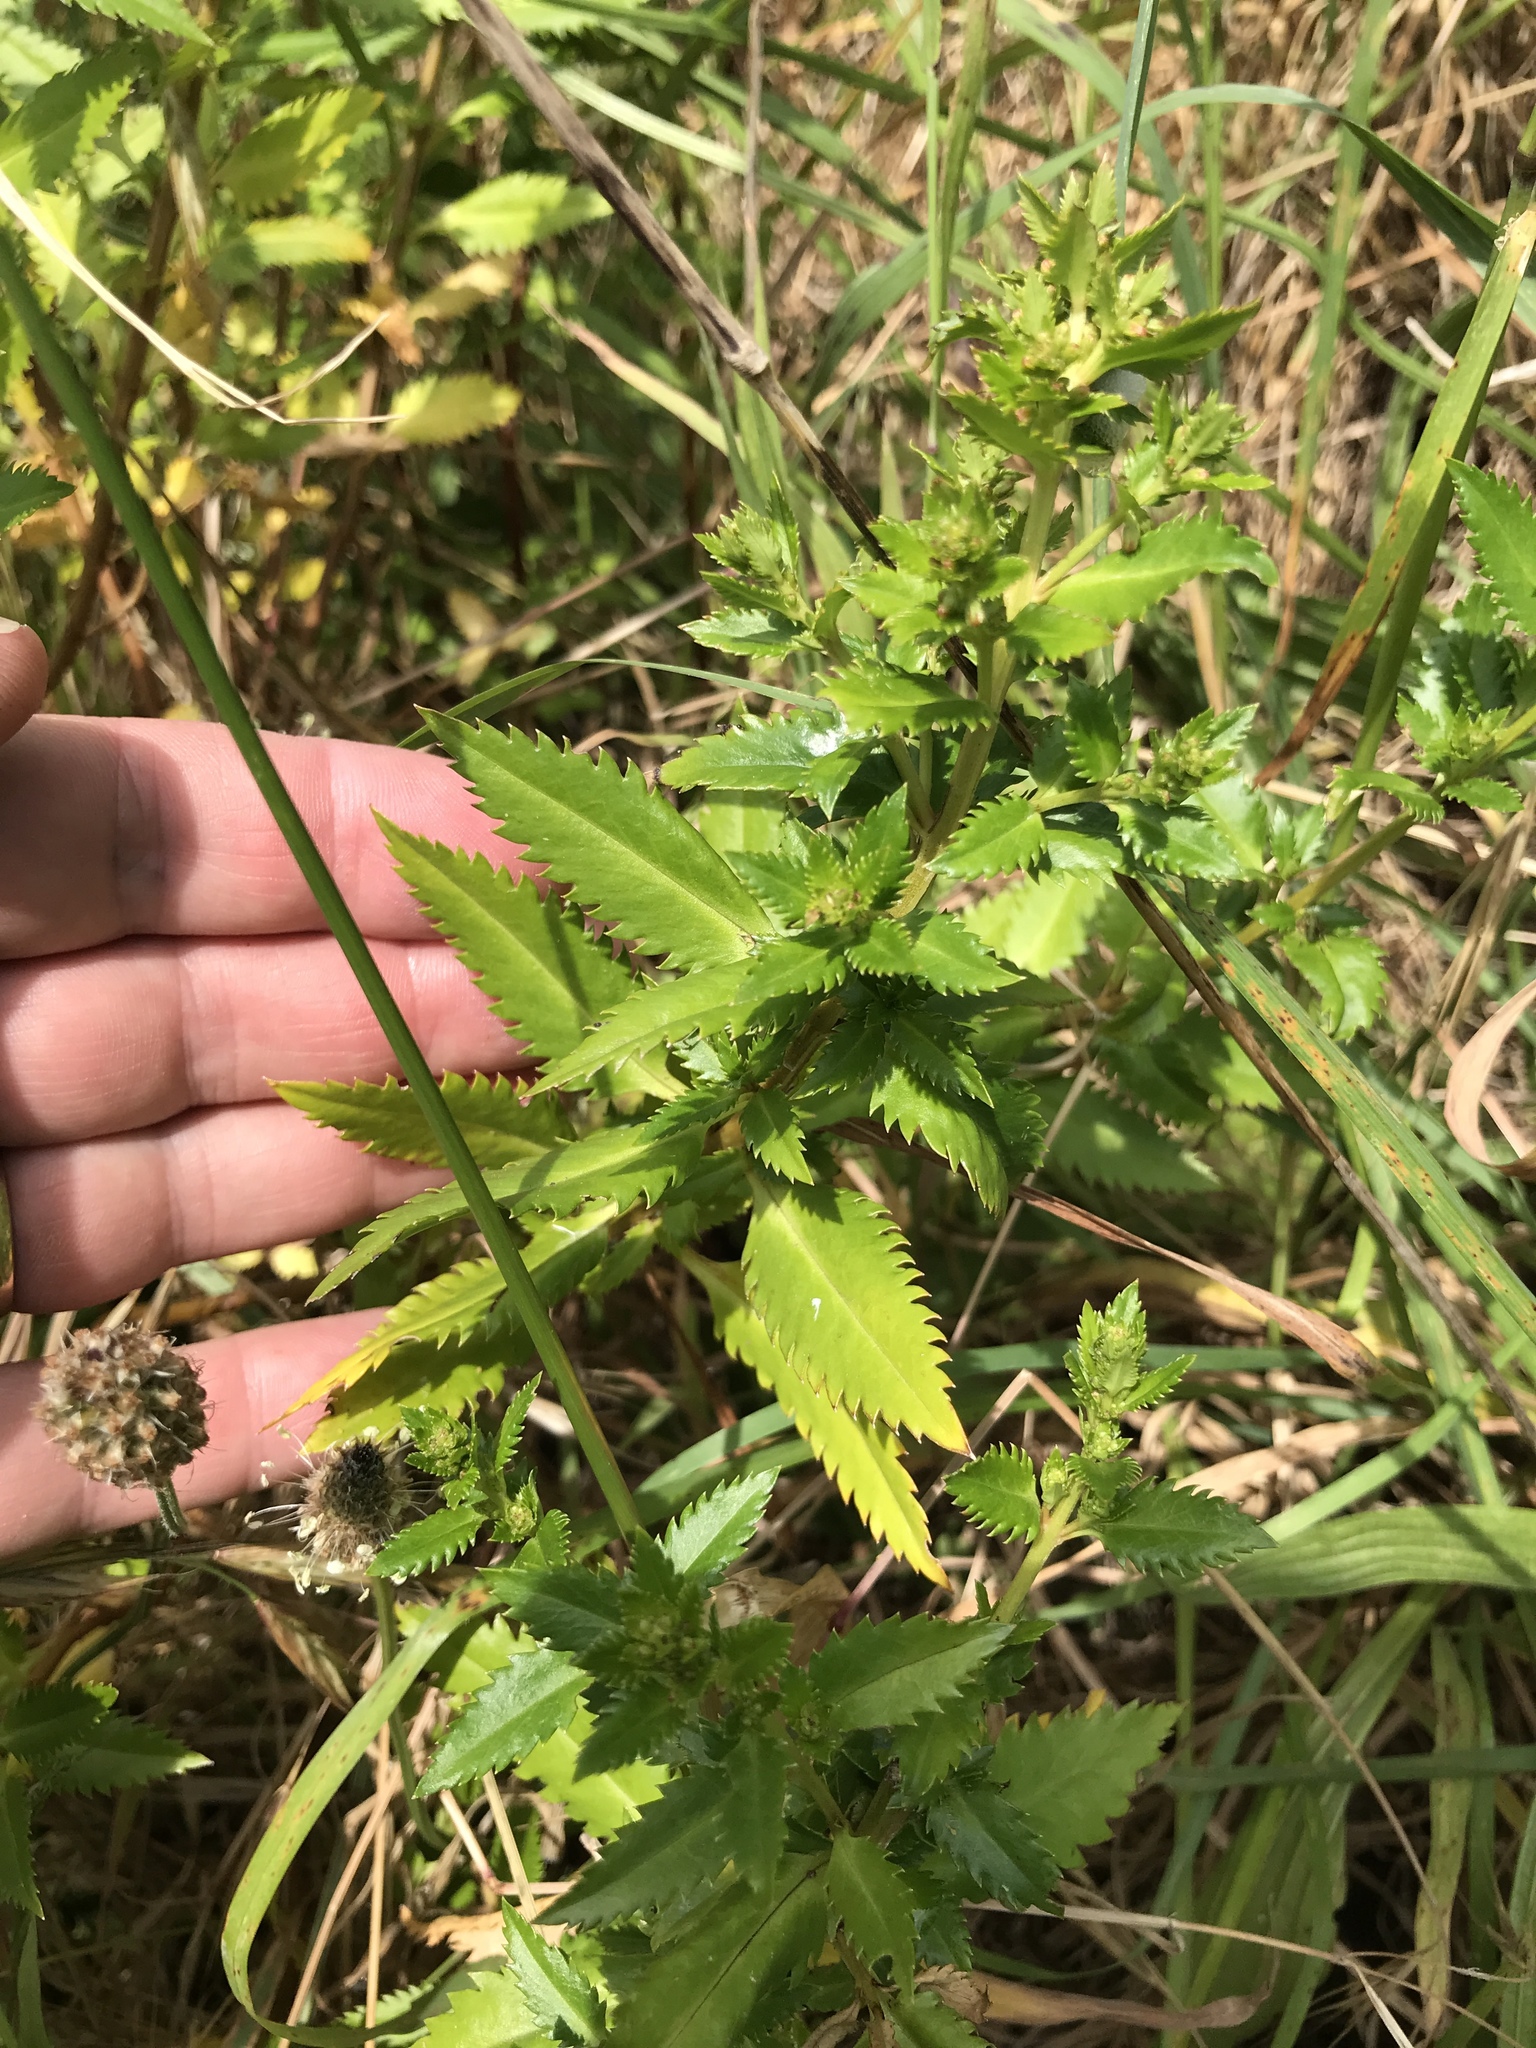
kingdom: Plantae
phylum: Tracheophyta
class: Magnoliopsida
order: Saxifragales
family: Haloragaceae
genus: Haloragis
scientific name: Haloragis erecta
